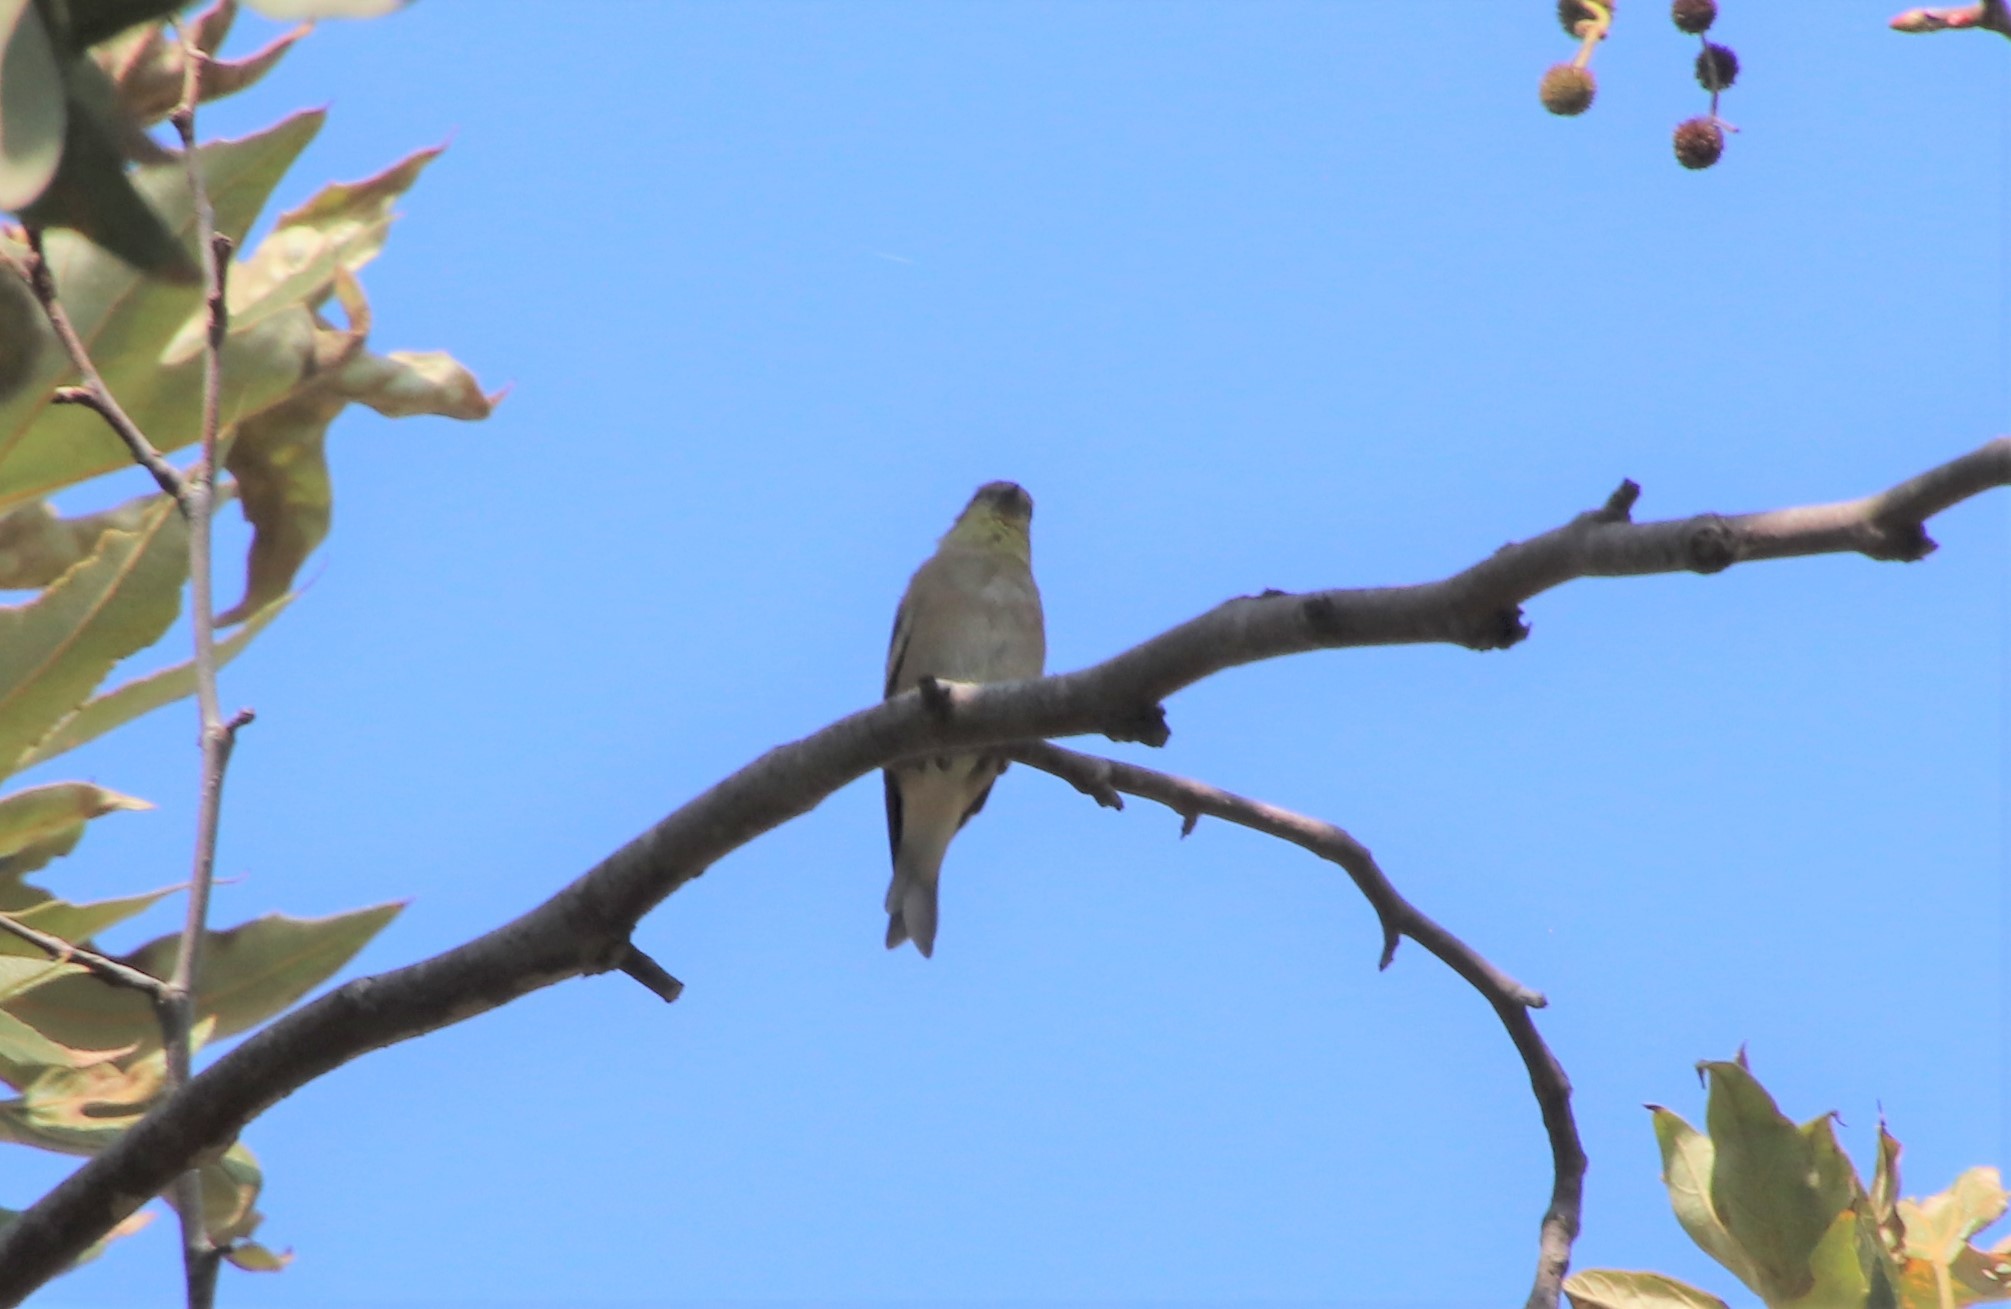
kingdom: Animalia
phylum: Chordata
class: Aves
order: Passeriformes
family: Fringillidae
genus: Spinus
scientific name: Spinus tristis
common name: American goldfinch
